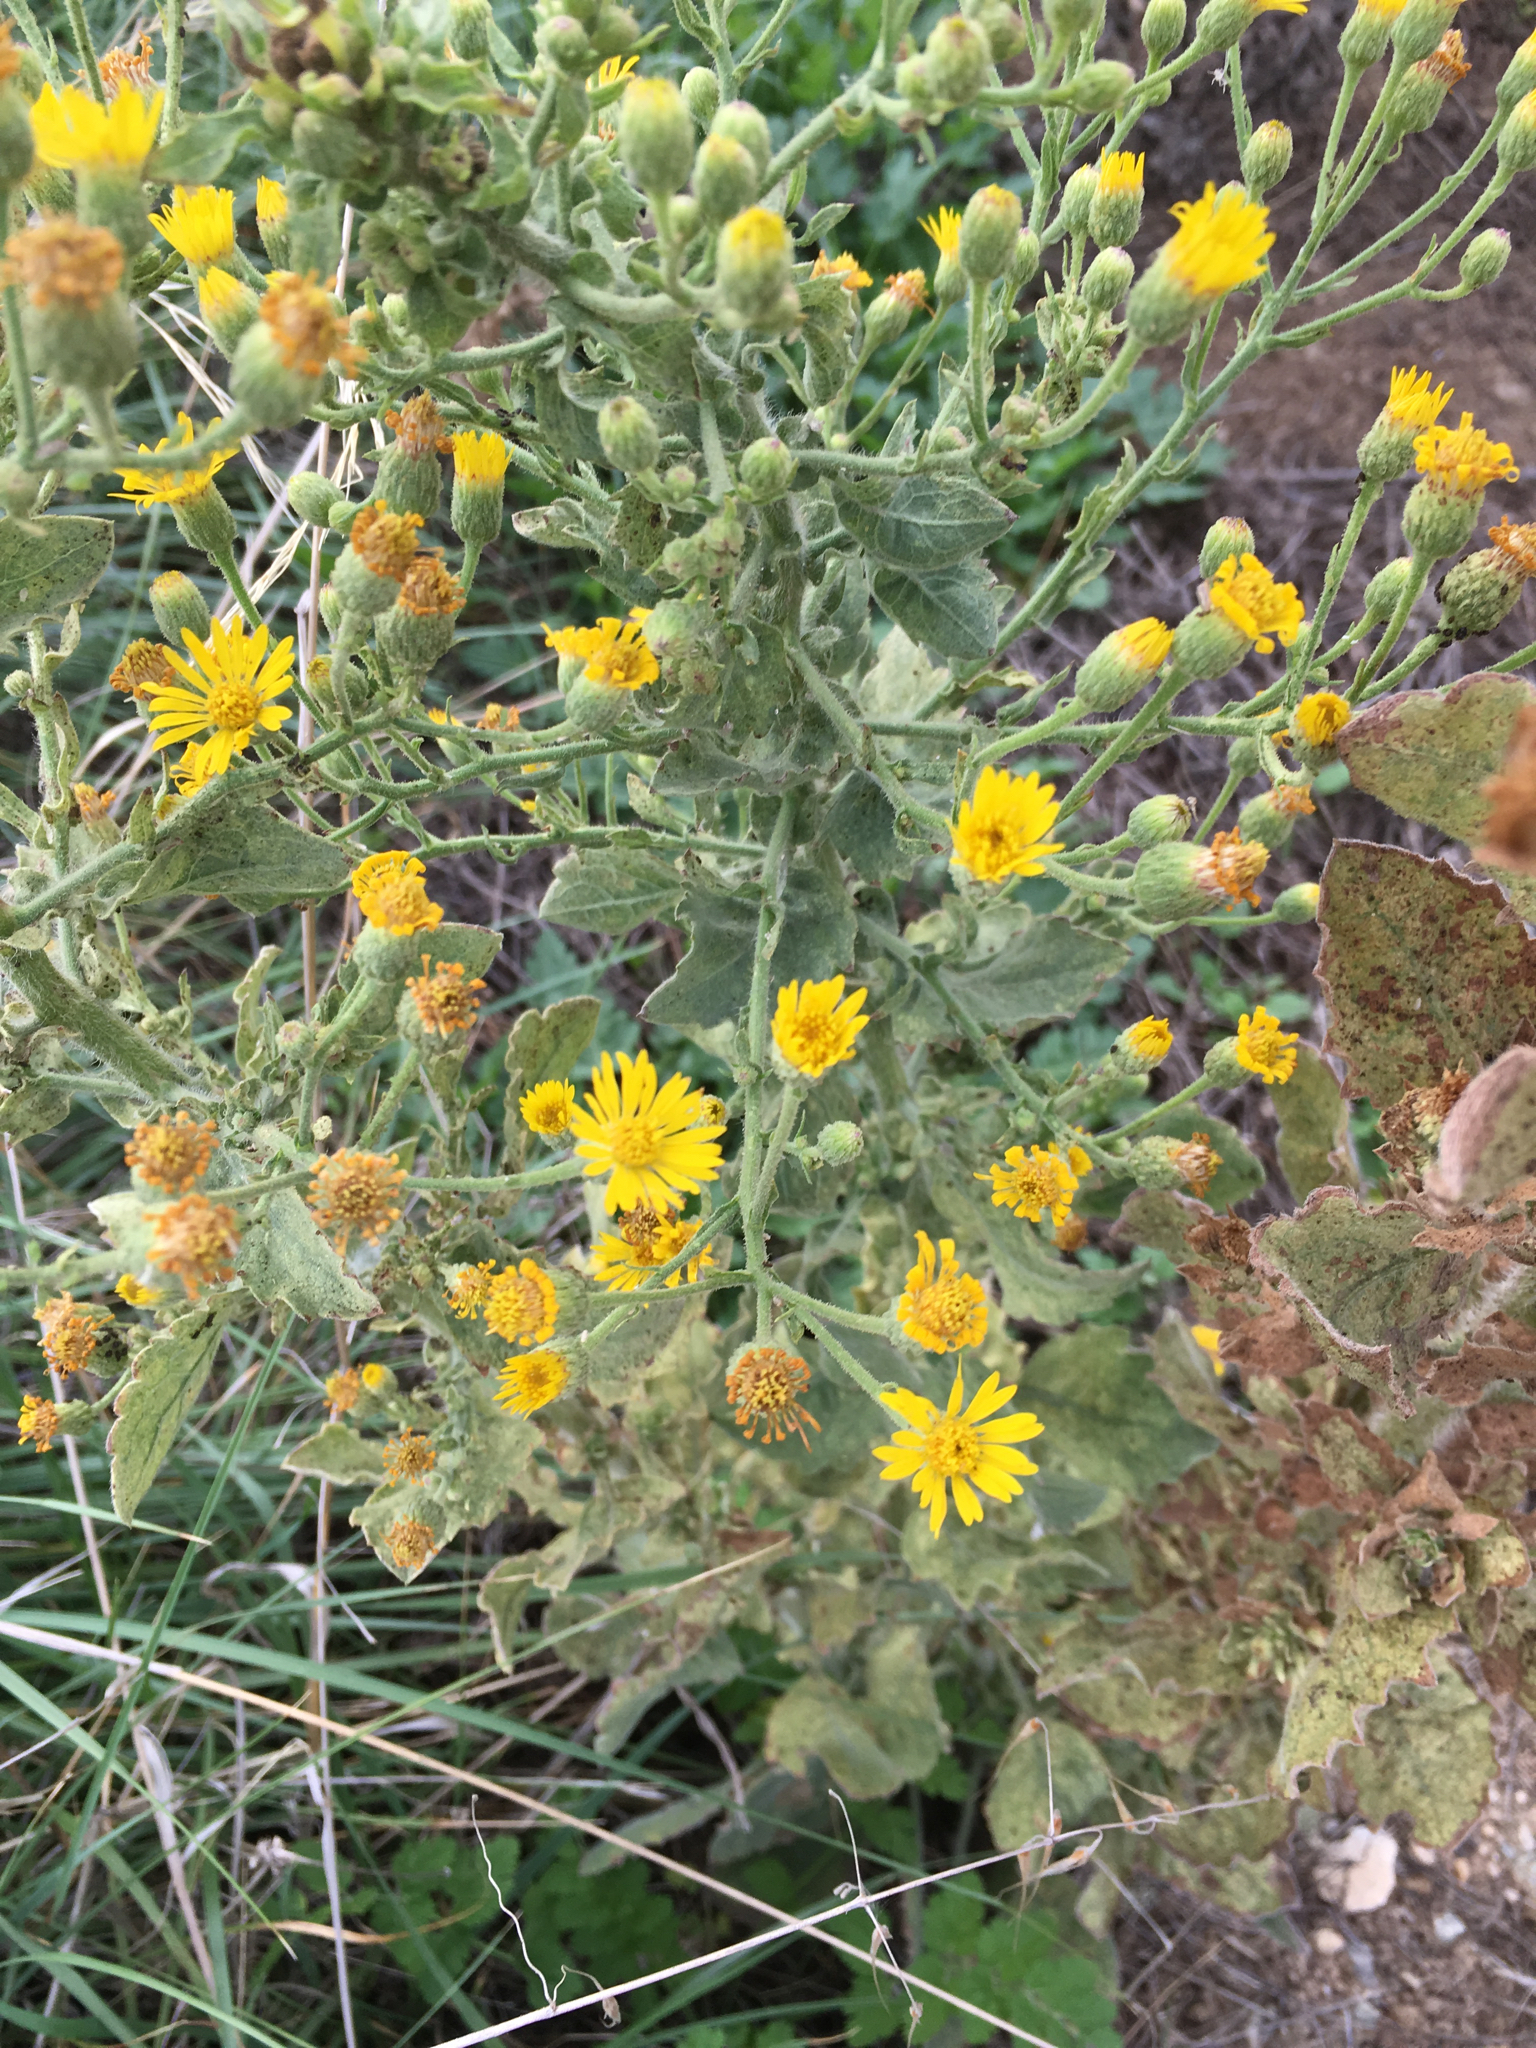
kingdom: Plantae
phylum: Tracheophyta
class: Magnoliopsida
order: Asterales
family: Asteraceae
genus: Heterotheca
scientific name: Heterotheca grandiflora
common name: Telegraphweed
